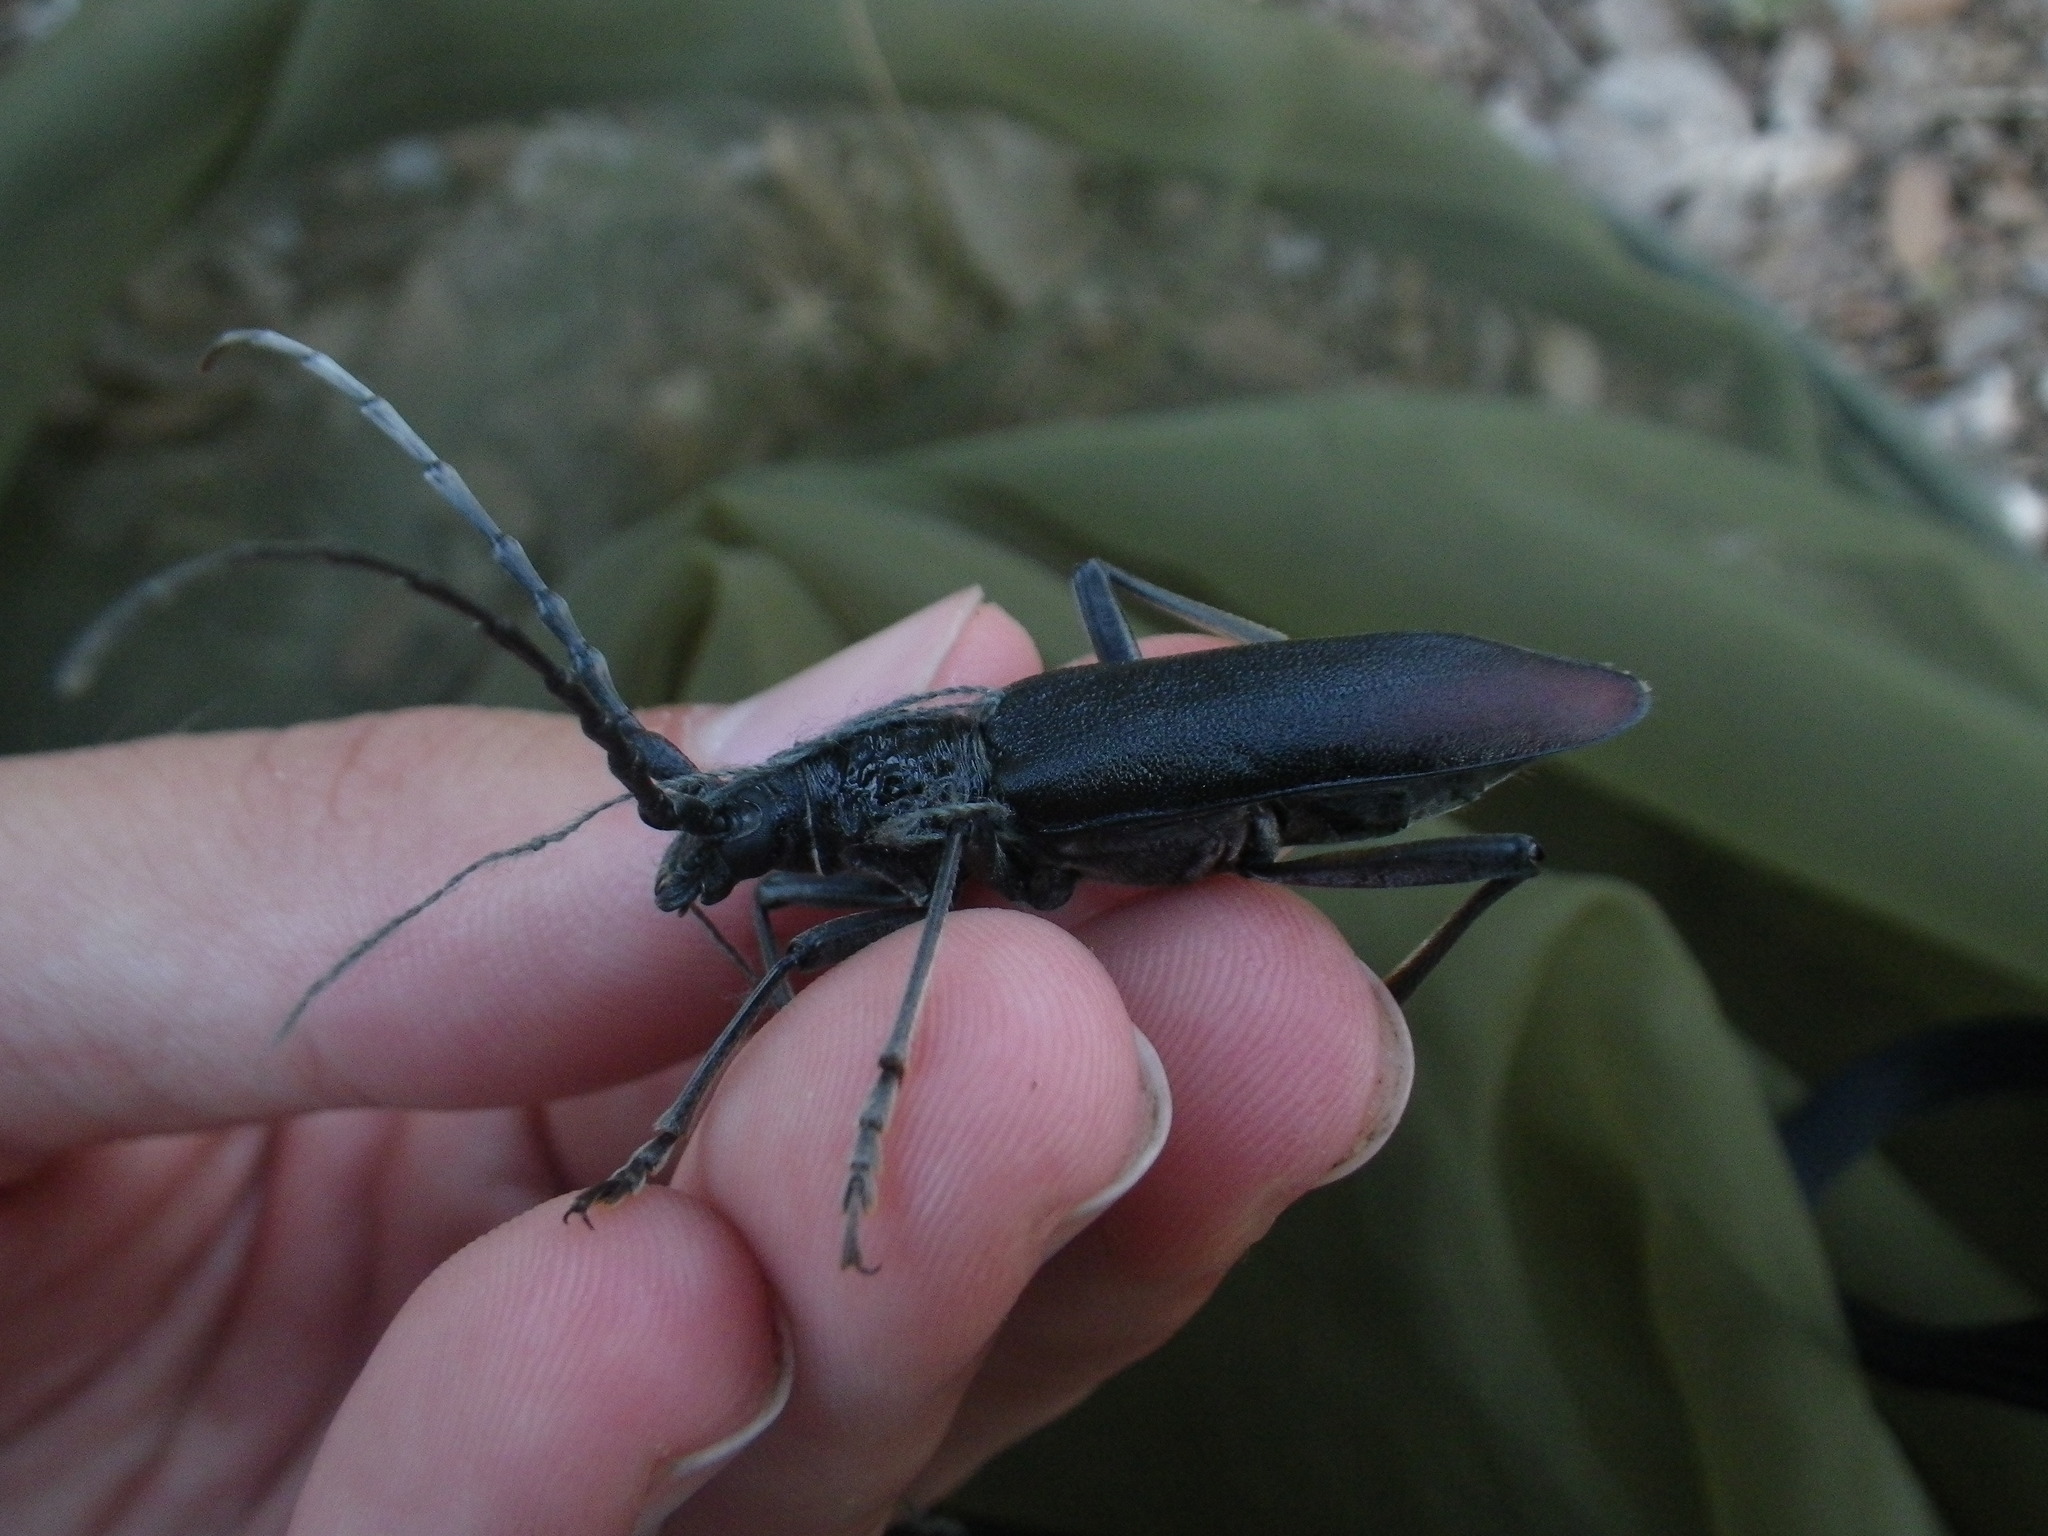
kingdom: Animalia
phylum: Arthropoda
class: Insecta
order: Coleoptera
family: Cerambycidae
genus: Cerambyx
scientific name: Cerambyx cerdo
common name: Cerambyx longicorn
